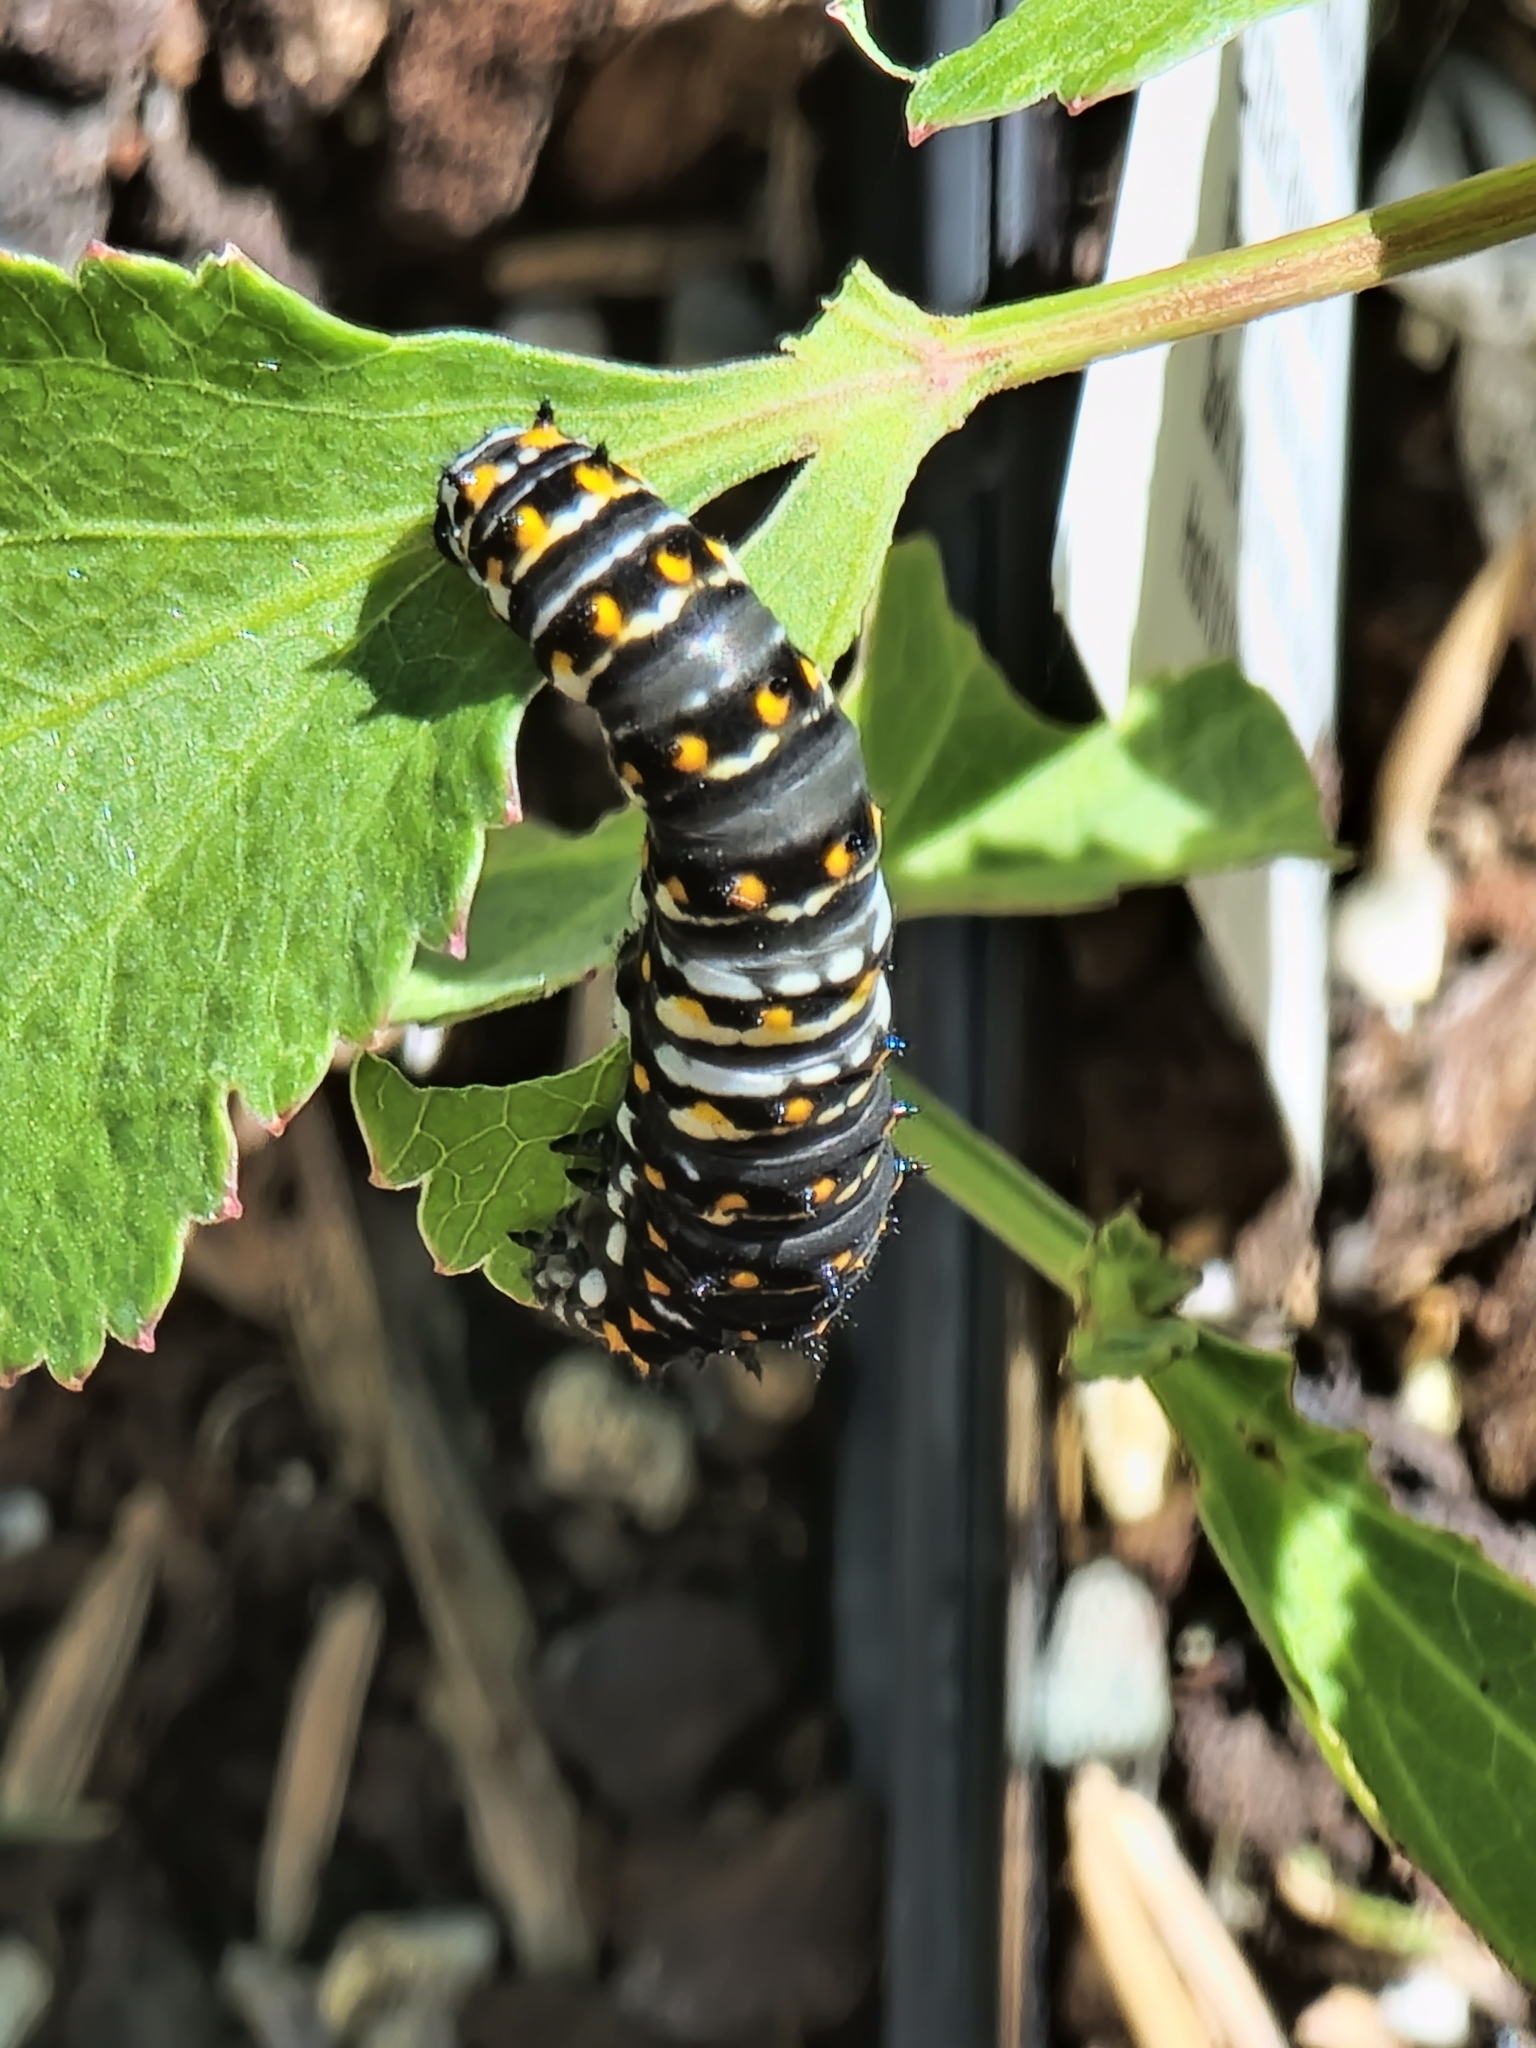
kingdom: Animalia
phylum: Arthropoda
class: Insecta
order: Lepidoptera
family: Papilionidae
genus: Papilio
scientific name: Papilio polyxenes
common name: Black swallowtail
